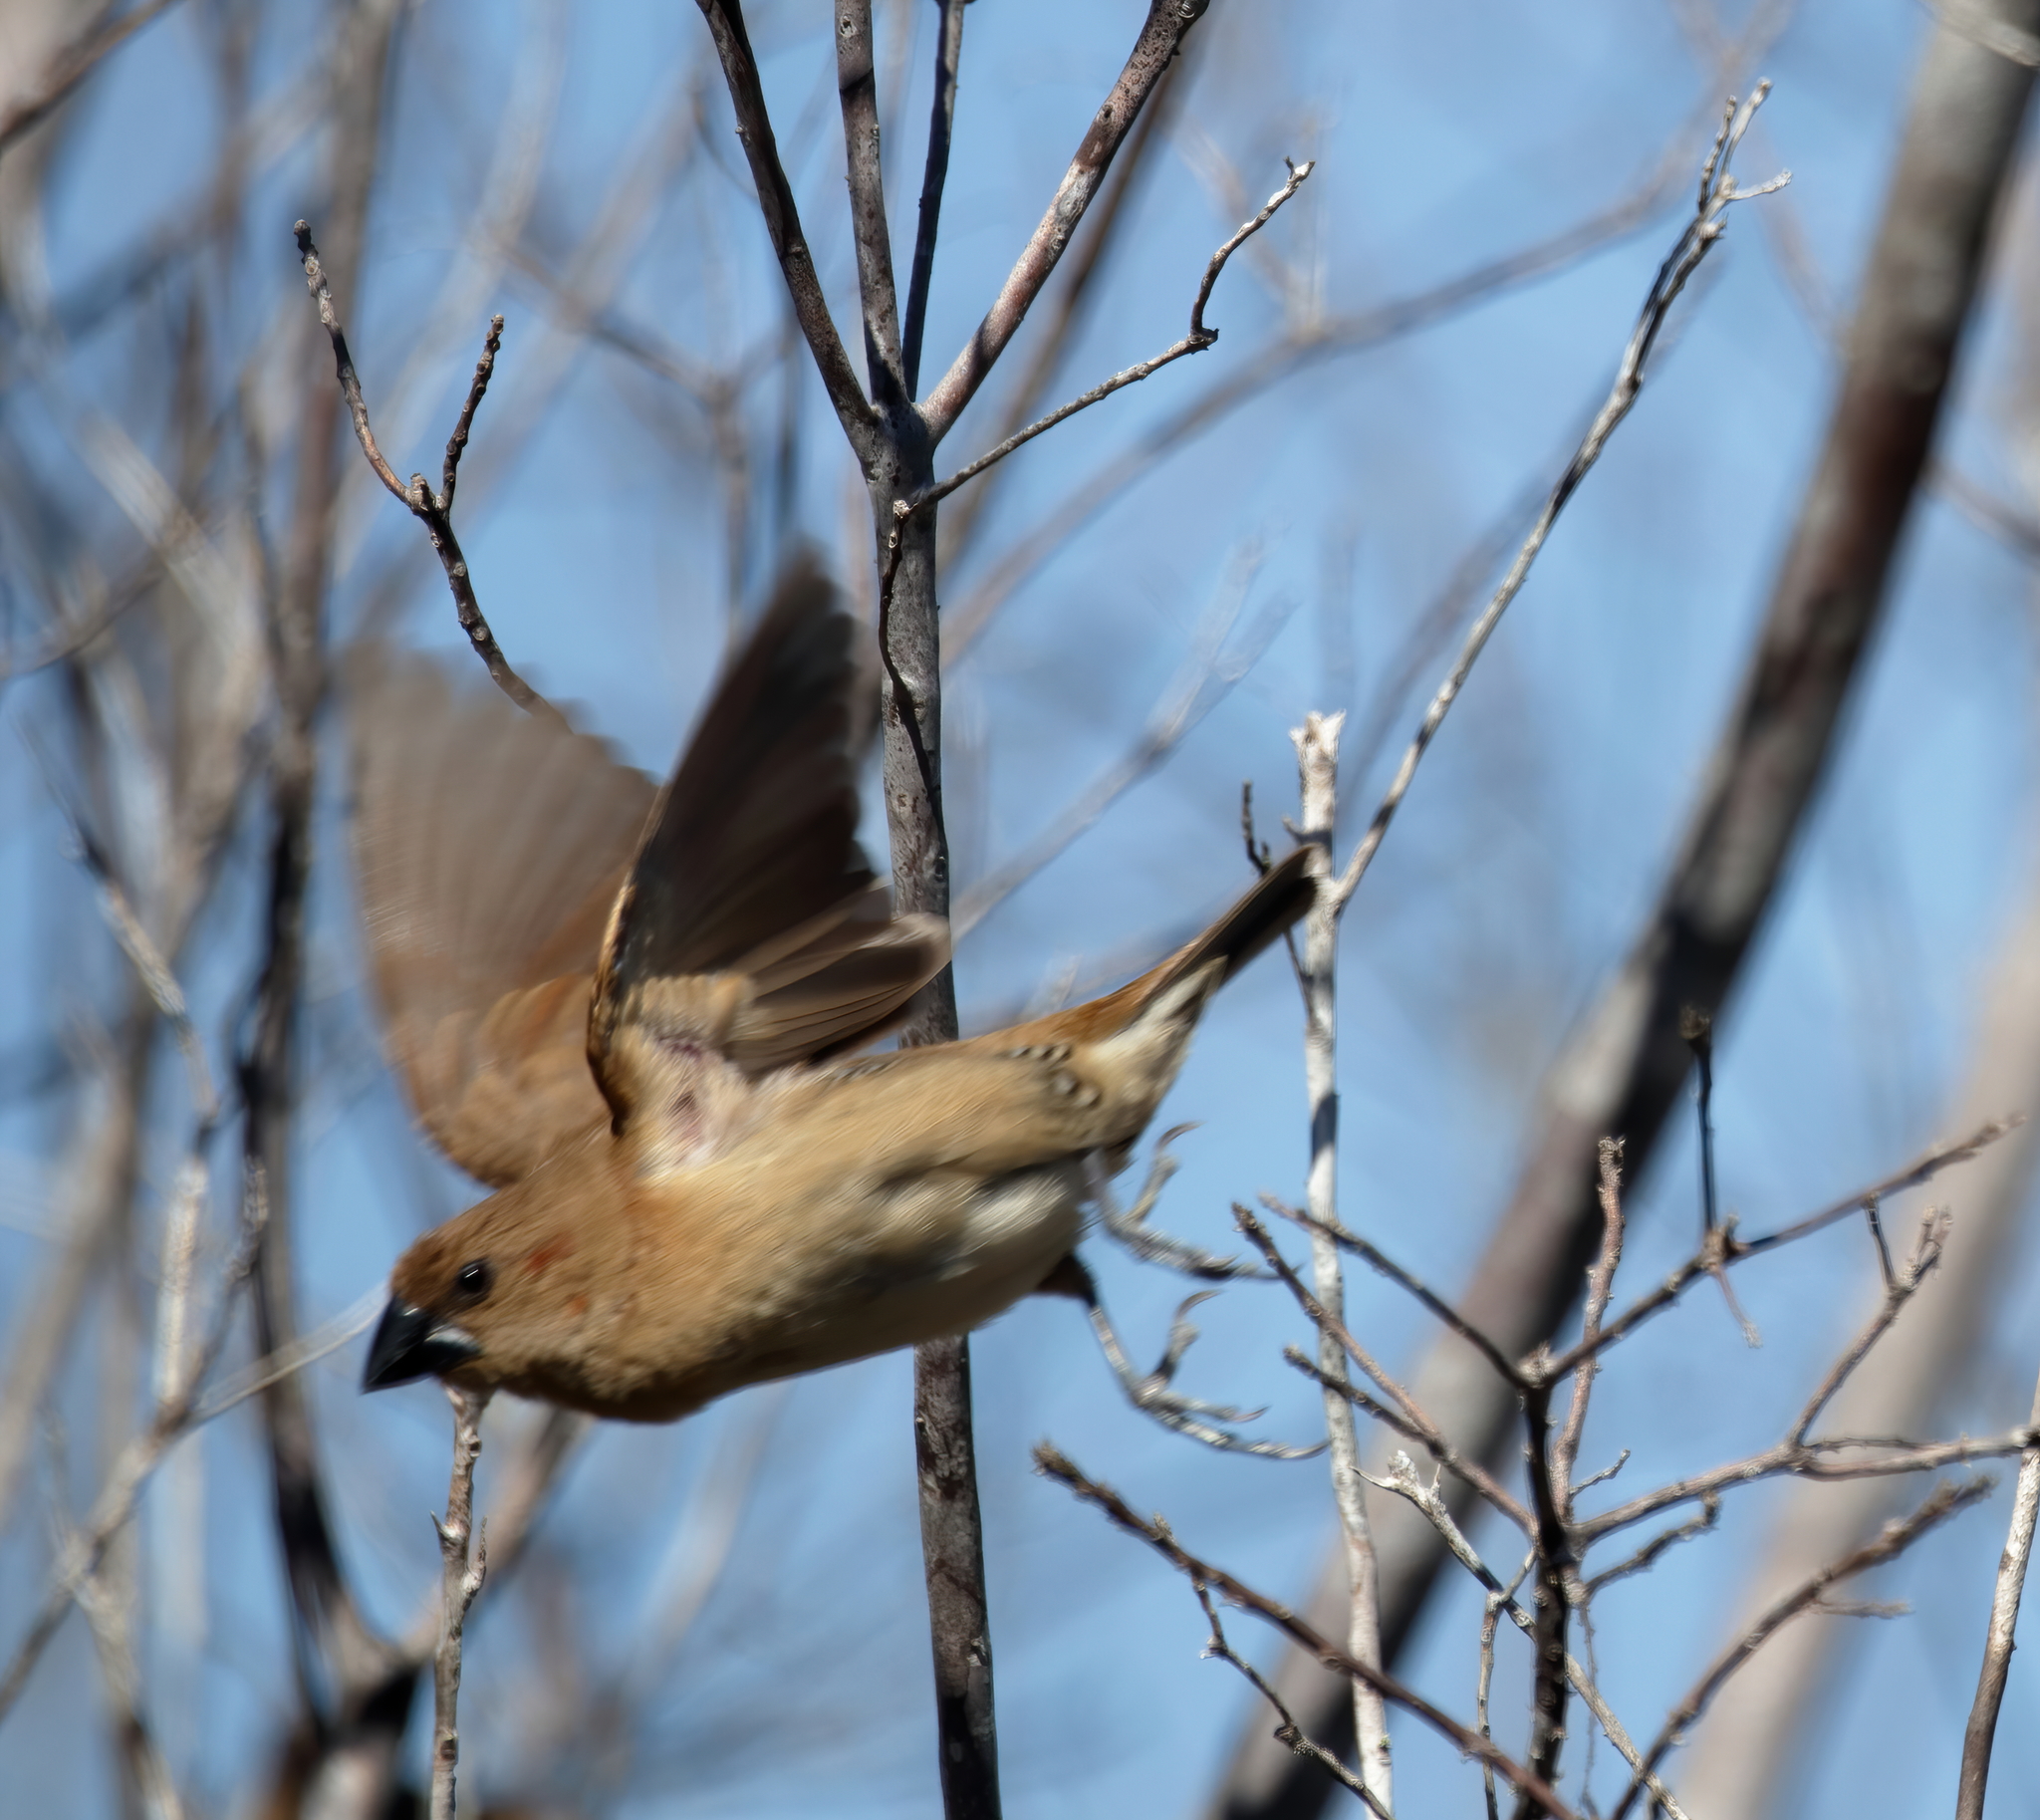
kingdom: Animalia
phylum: Chordata
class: Aves
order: Passeriformes
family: Estrildidae
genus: Lonchura
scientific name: Lonchura punctulata
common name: Scaly-breasted munia
